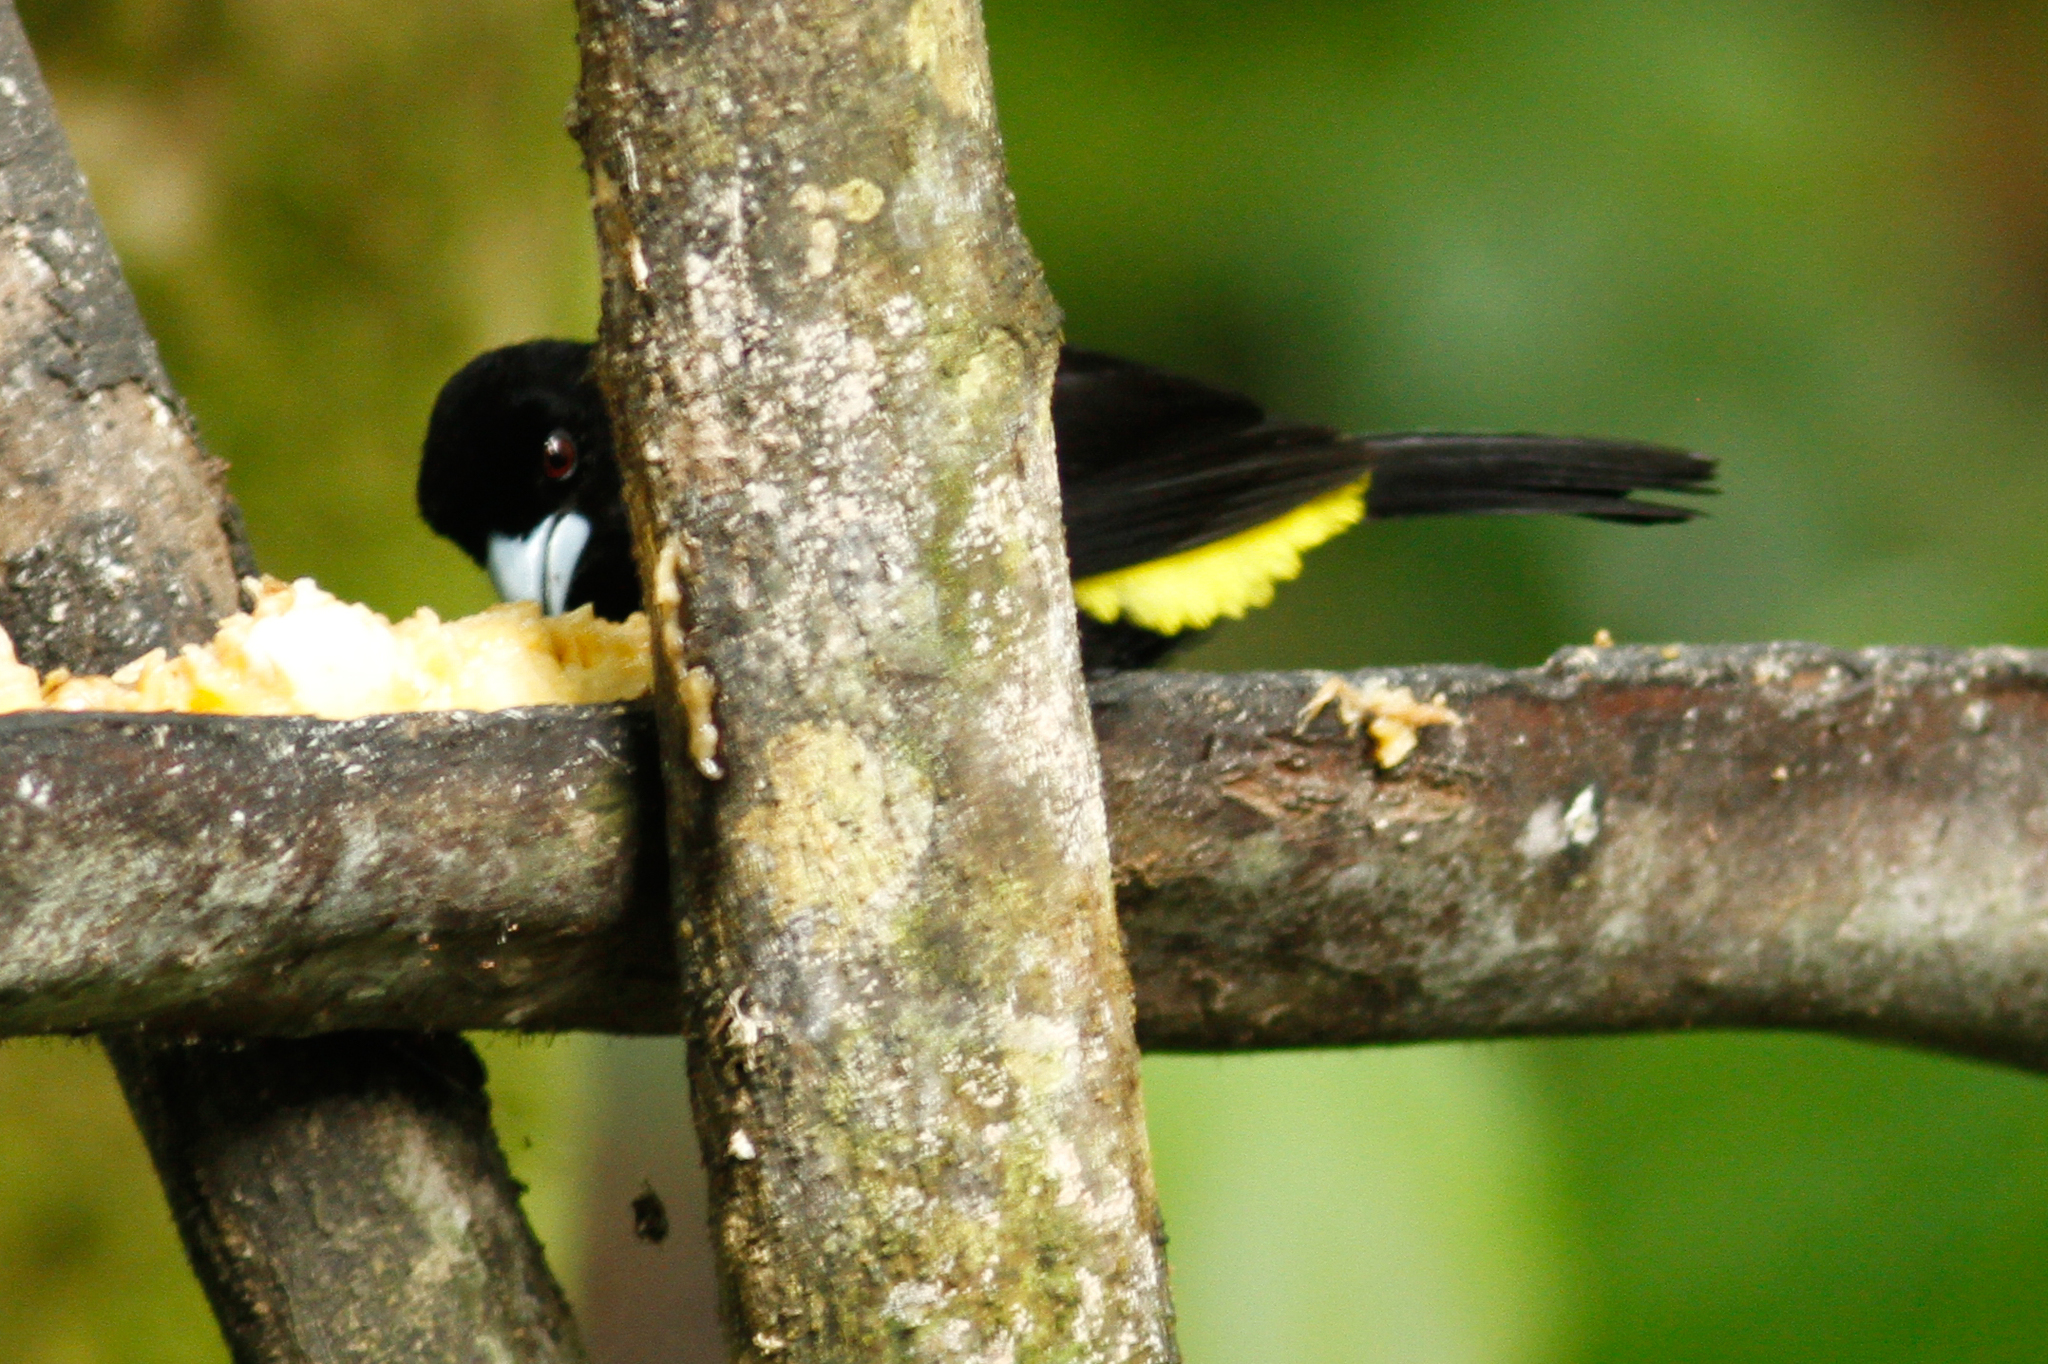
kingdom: Animalia
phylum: Chordata
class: Aves
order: Passeriformes
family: Thraupidae
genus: Ramphocelus
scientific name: Ramphocelus icteronotus
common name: Lemon-rumped tanager
